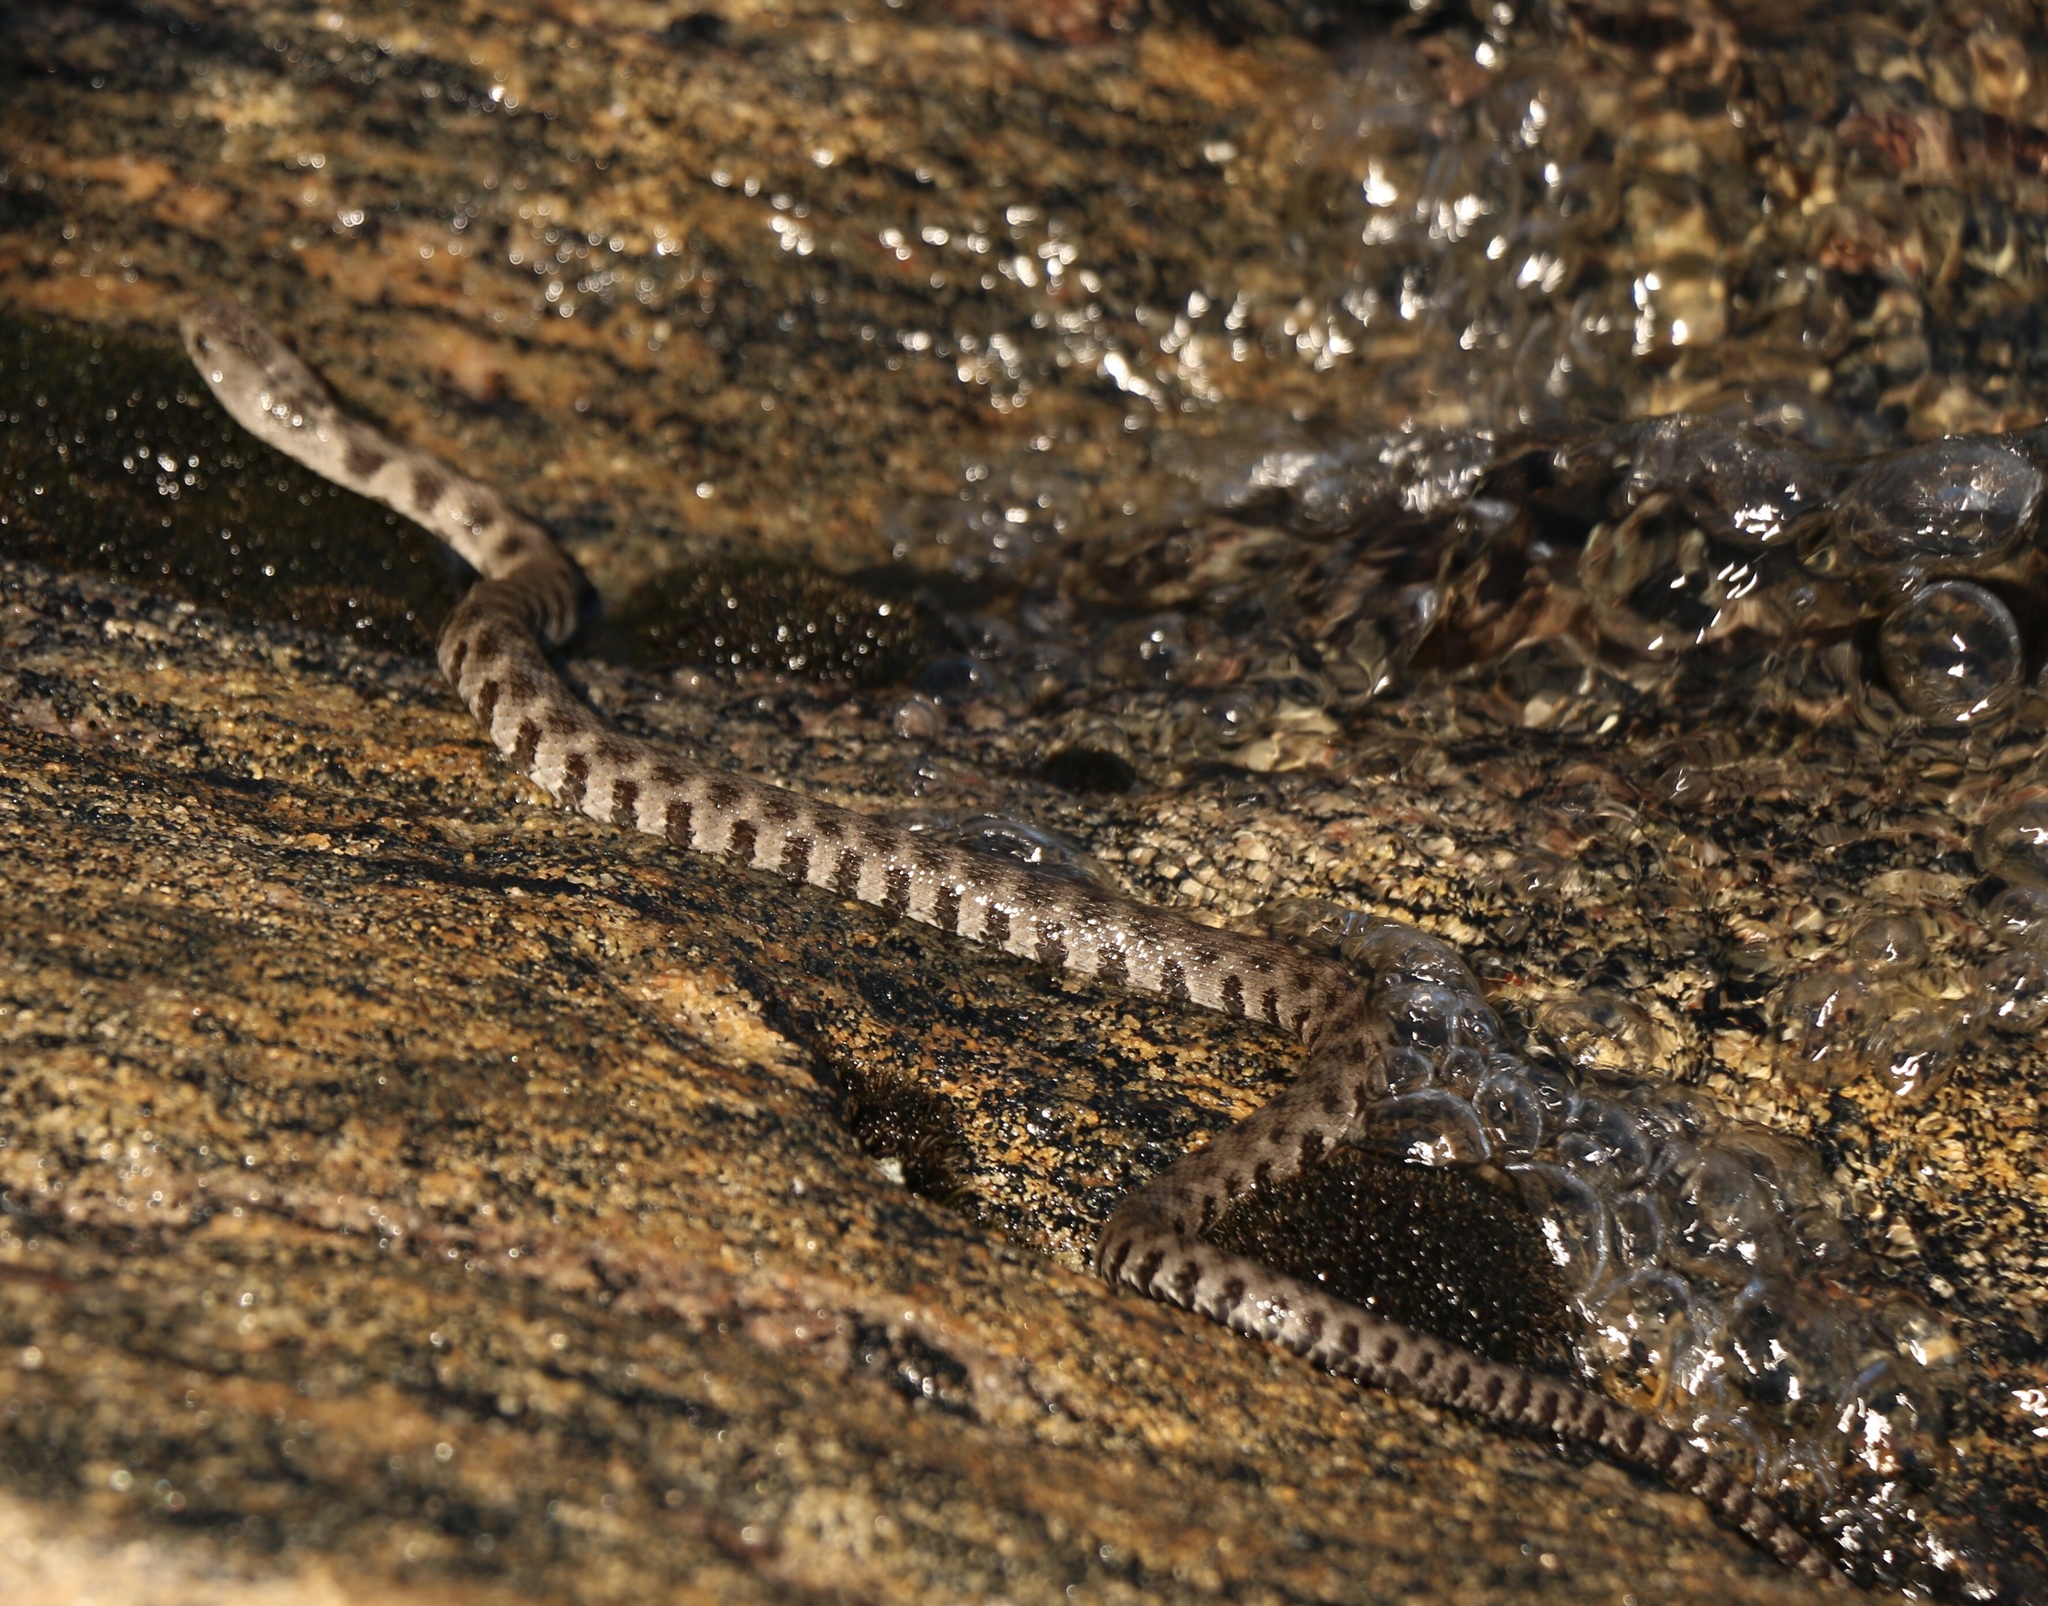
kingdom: Animalia
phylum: Chordata
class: Squamata
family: Colubridae
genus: Nerodia
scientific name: Nerodia sipedon
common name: Northern water snake
